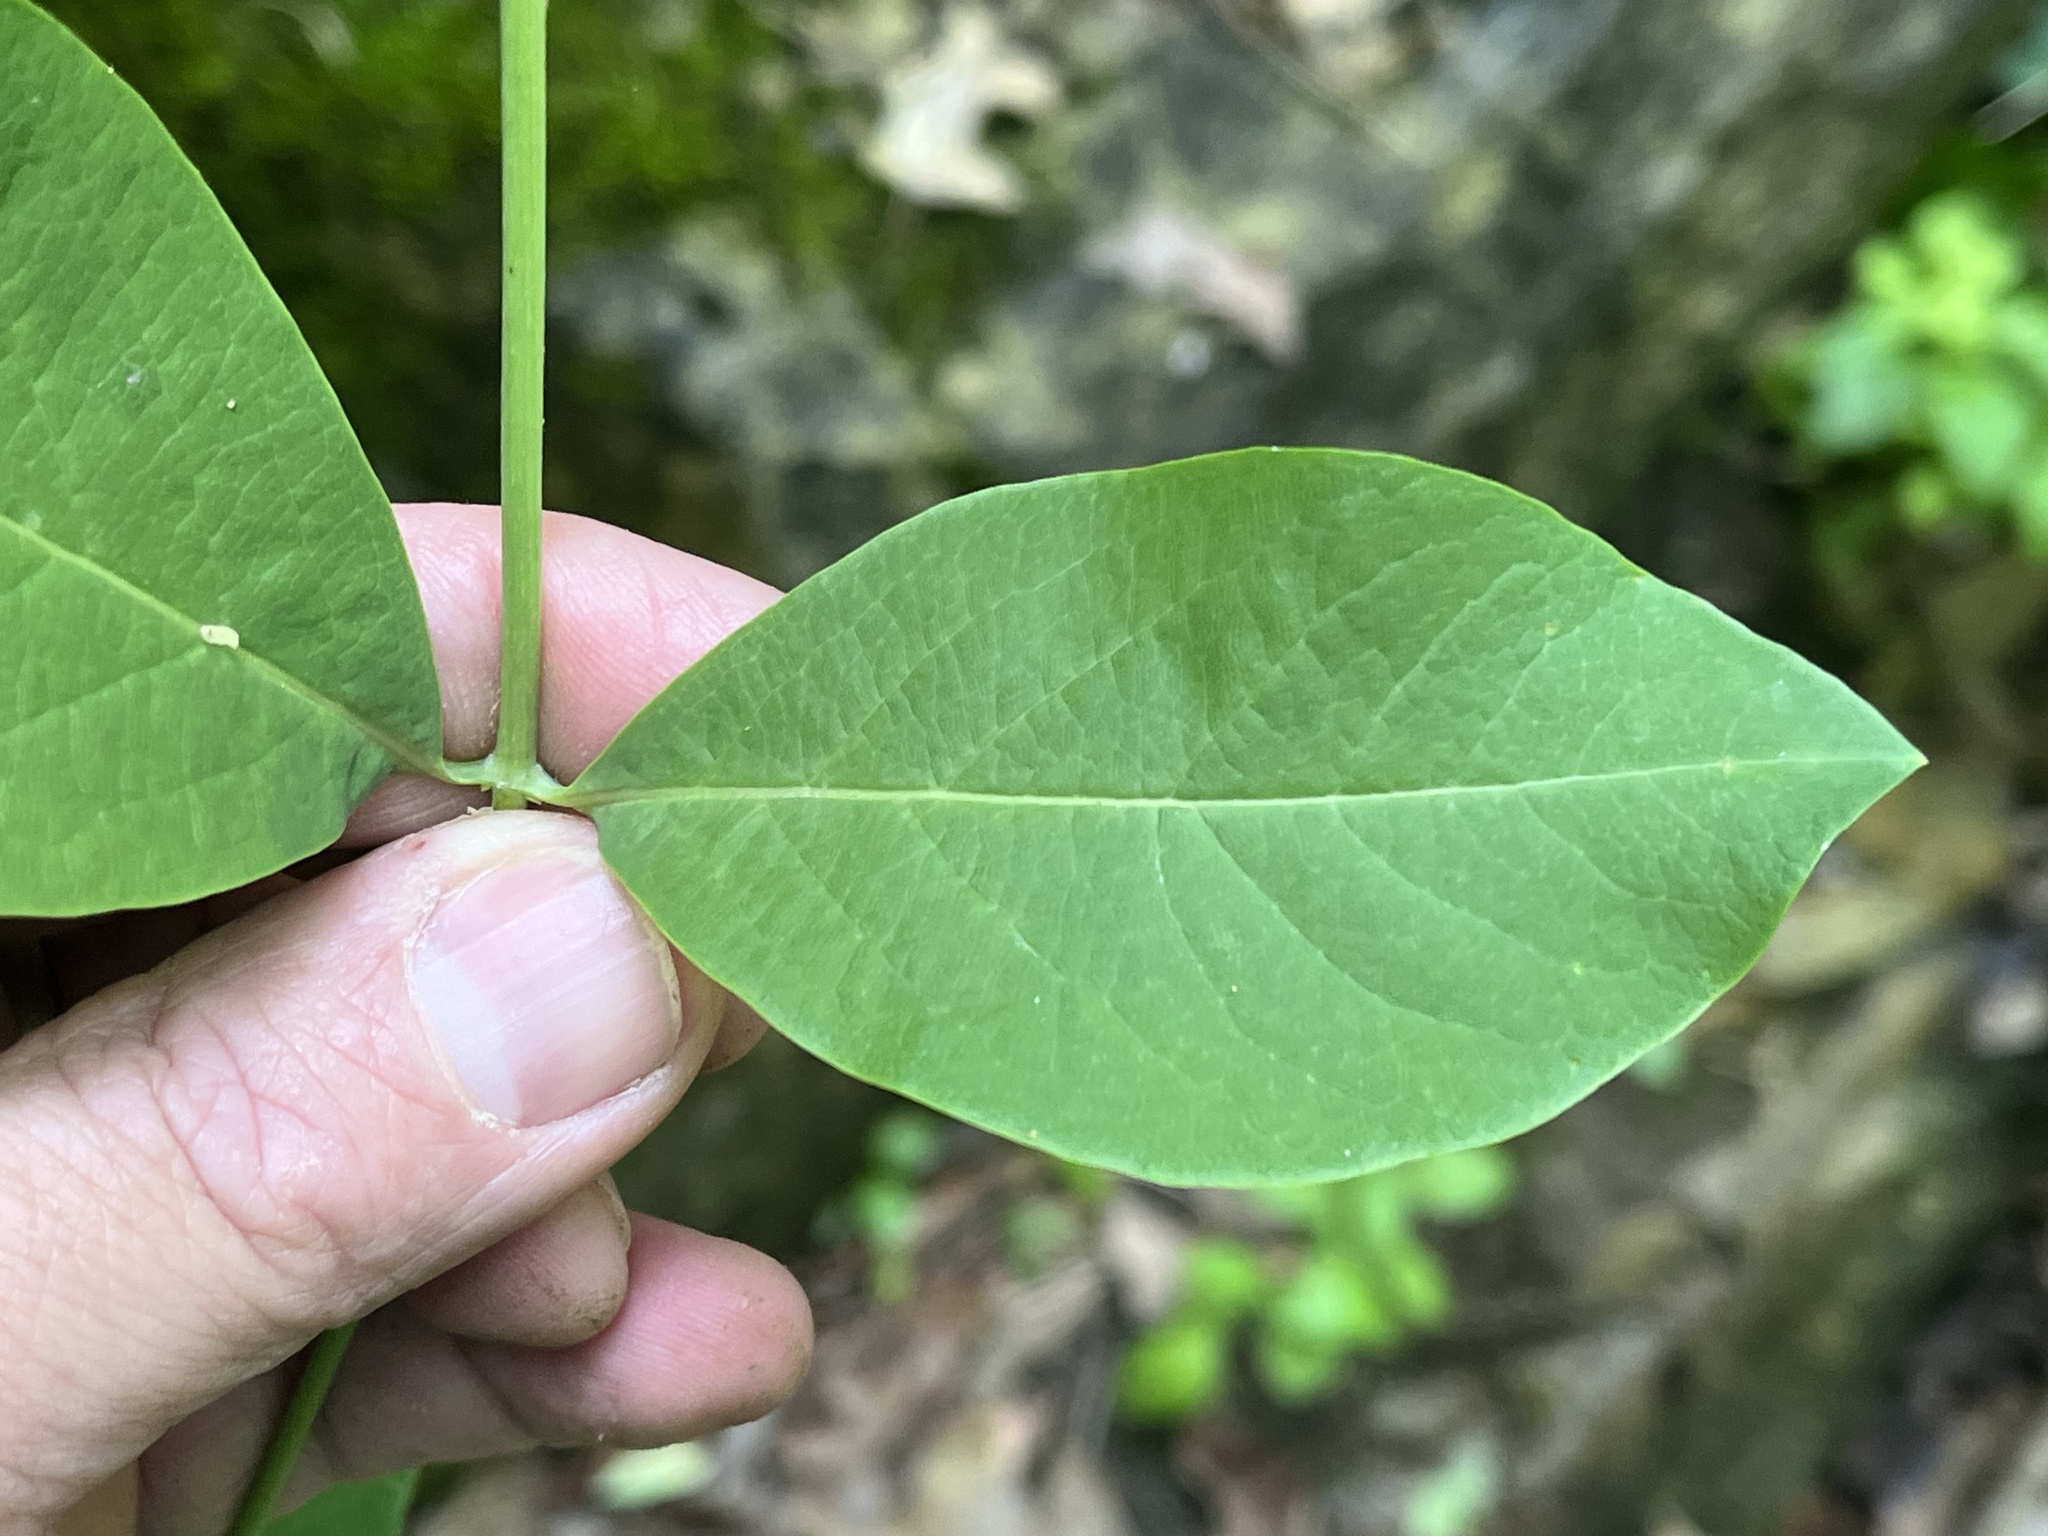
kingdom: Plantae
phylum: Tracheophyta
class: Magnoliopsida
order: Dipsacales
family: Caprifoliaceae
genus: Lonicera
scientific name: Lonicera dioica
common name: Limber honeysuckle
